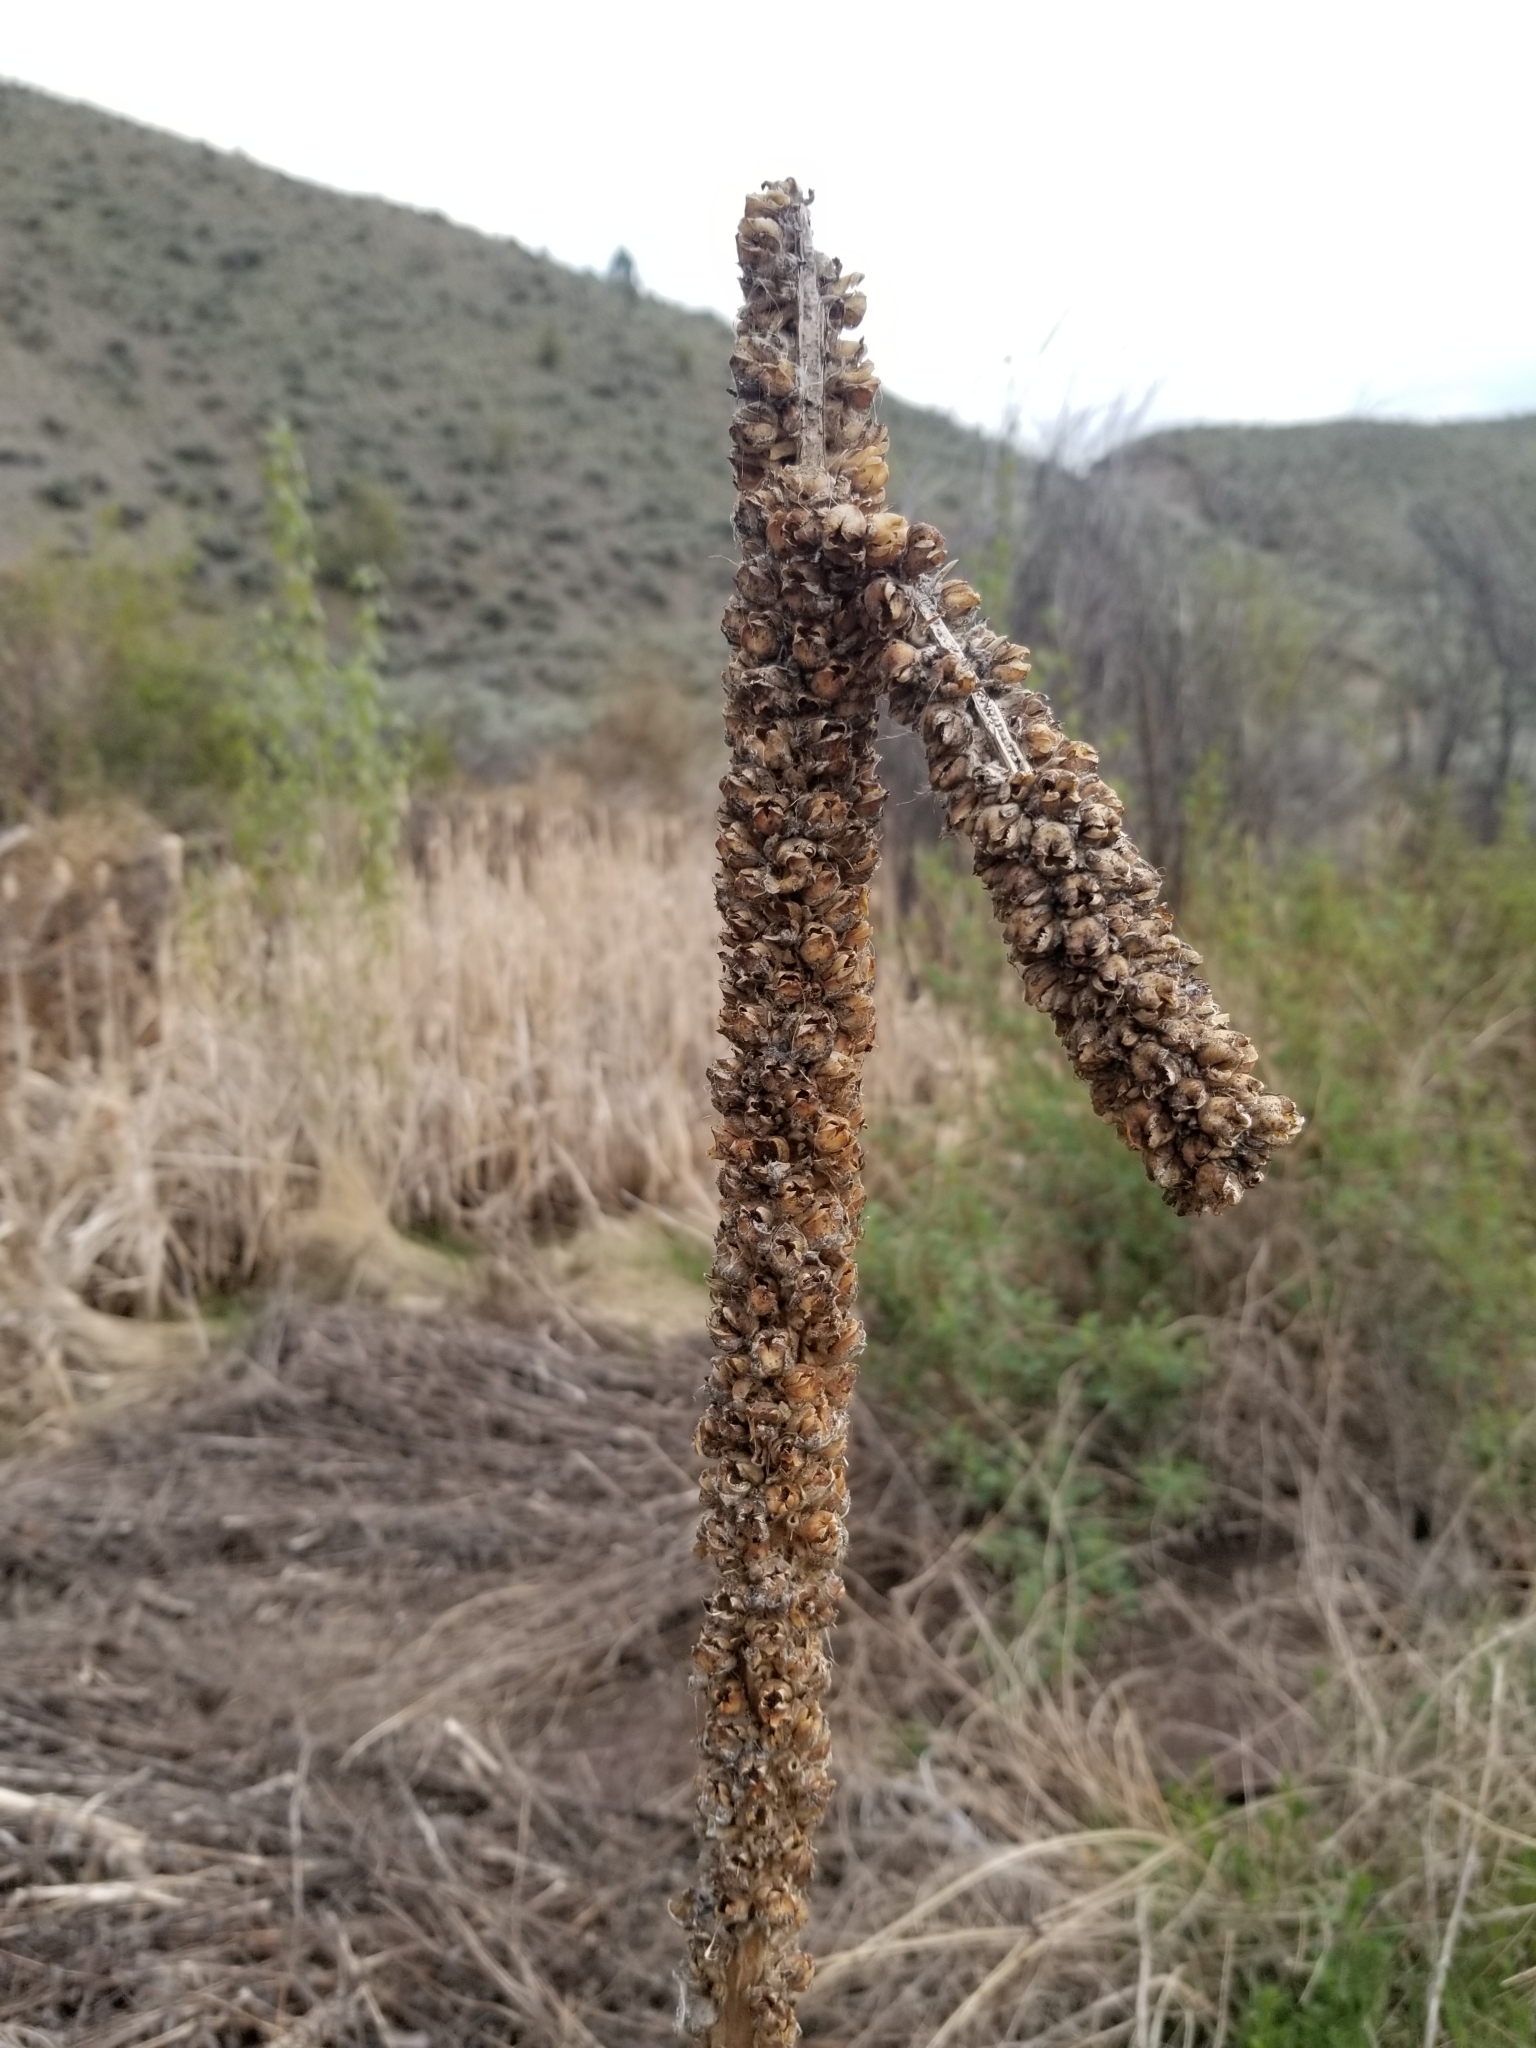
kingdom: Plantae
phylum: Tracheophyta
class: Magnoliopsida
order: Lamiales
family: Scrophulariaceae
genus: Verbascum
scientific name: Verbascum thapsus
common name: Common mullein
